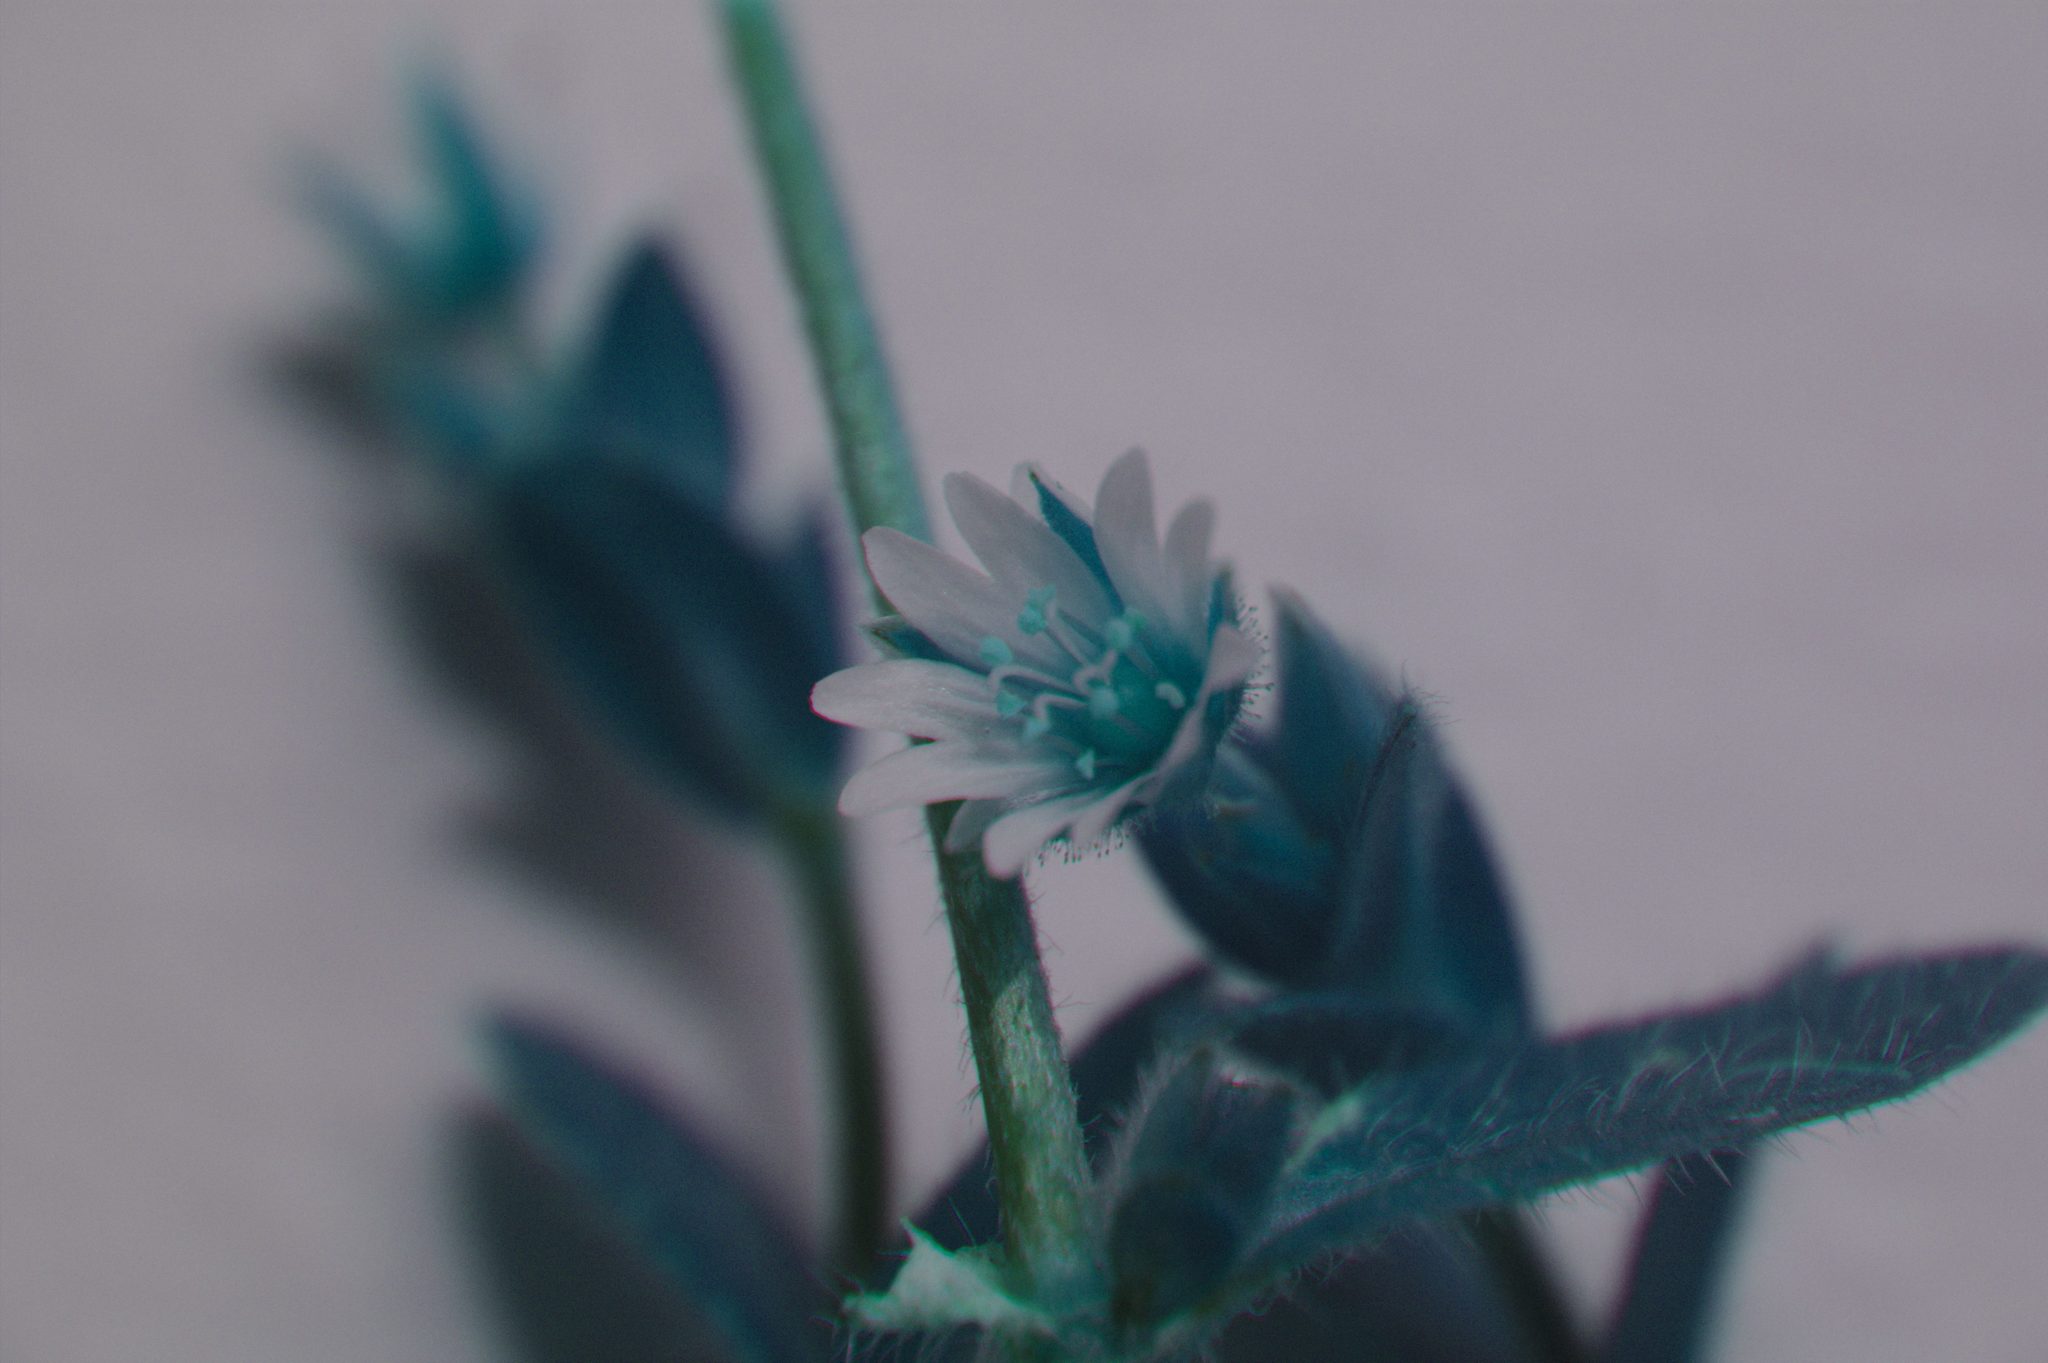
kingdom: Plantae
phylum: Tracheophyta
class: Magnoliopsida
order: Caryophyllales
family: Caryophyllaceae
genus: Cerastium
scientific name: Cerastium holosteoides
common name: Big chickweed
